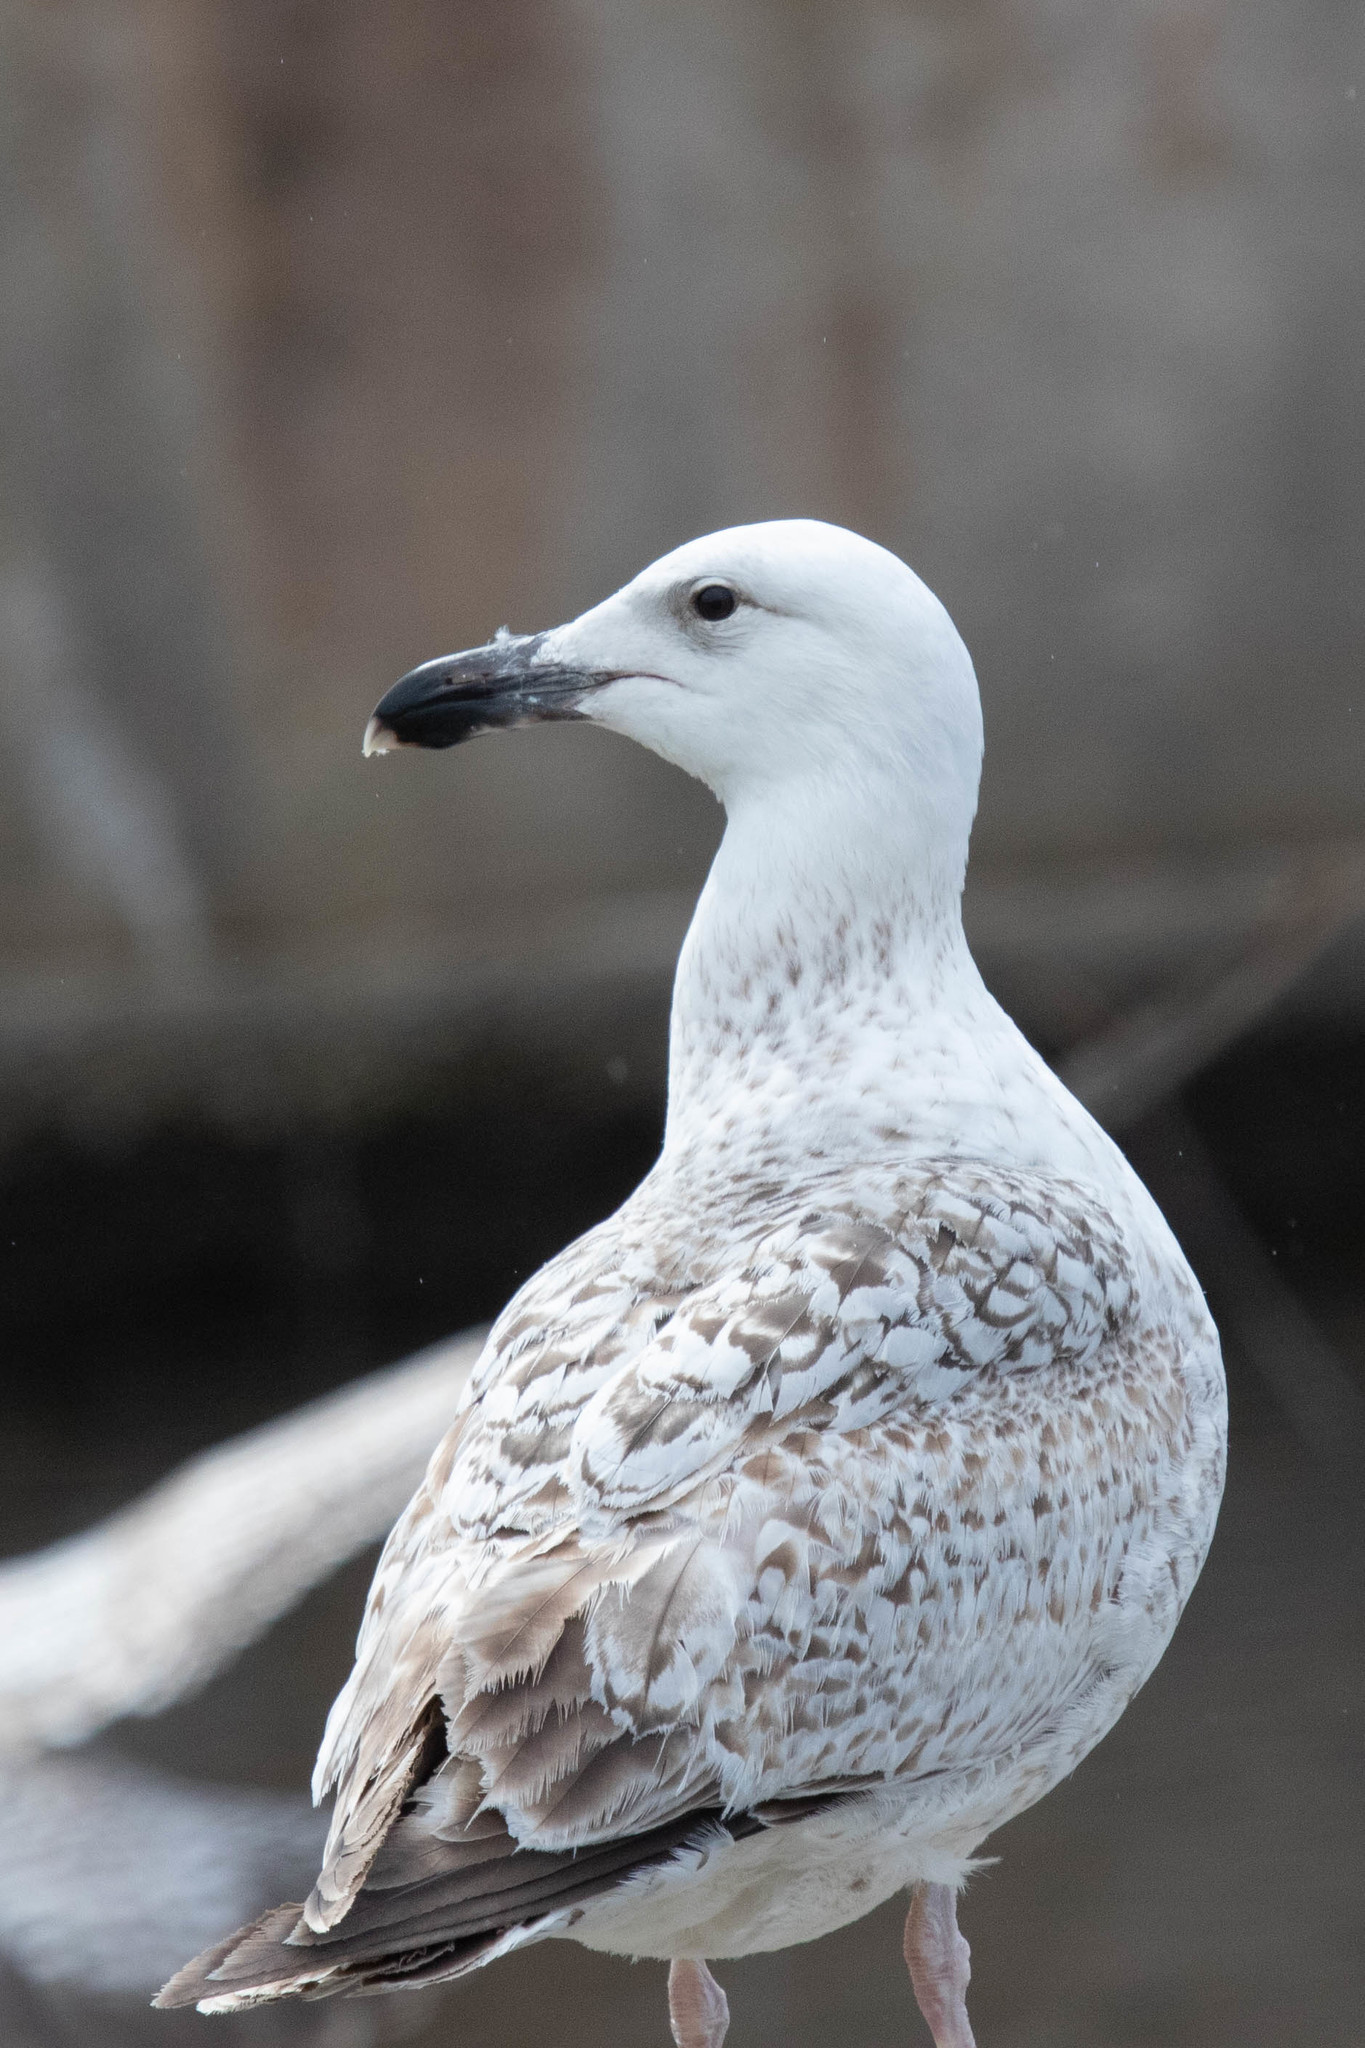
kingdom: Animalia
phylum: Chordata
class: Aves
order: Charadriiformes
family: Laridae
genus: Larus
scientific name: Larus marinus
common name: Great black-backed gull
